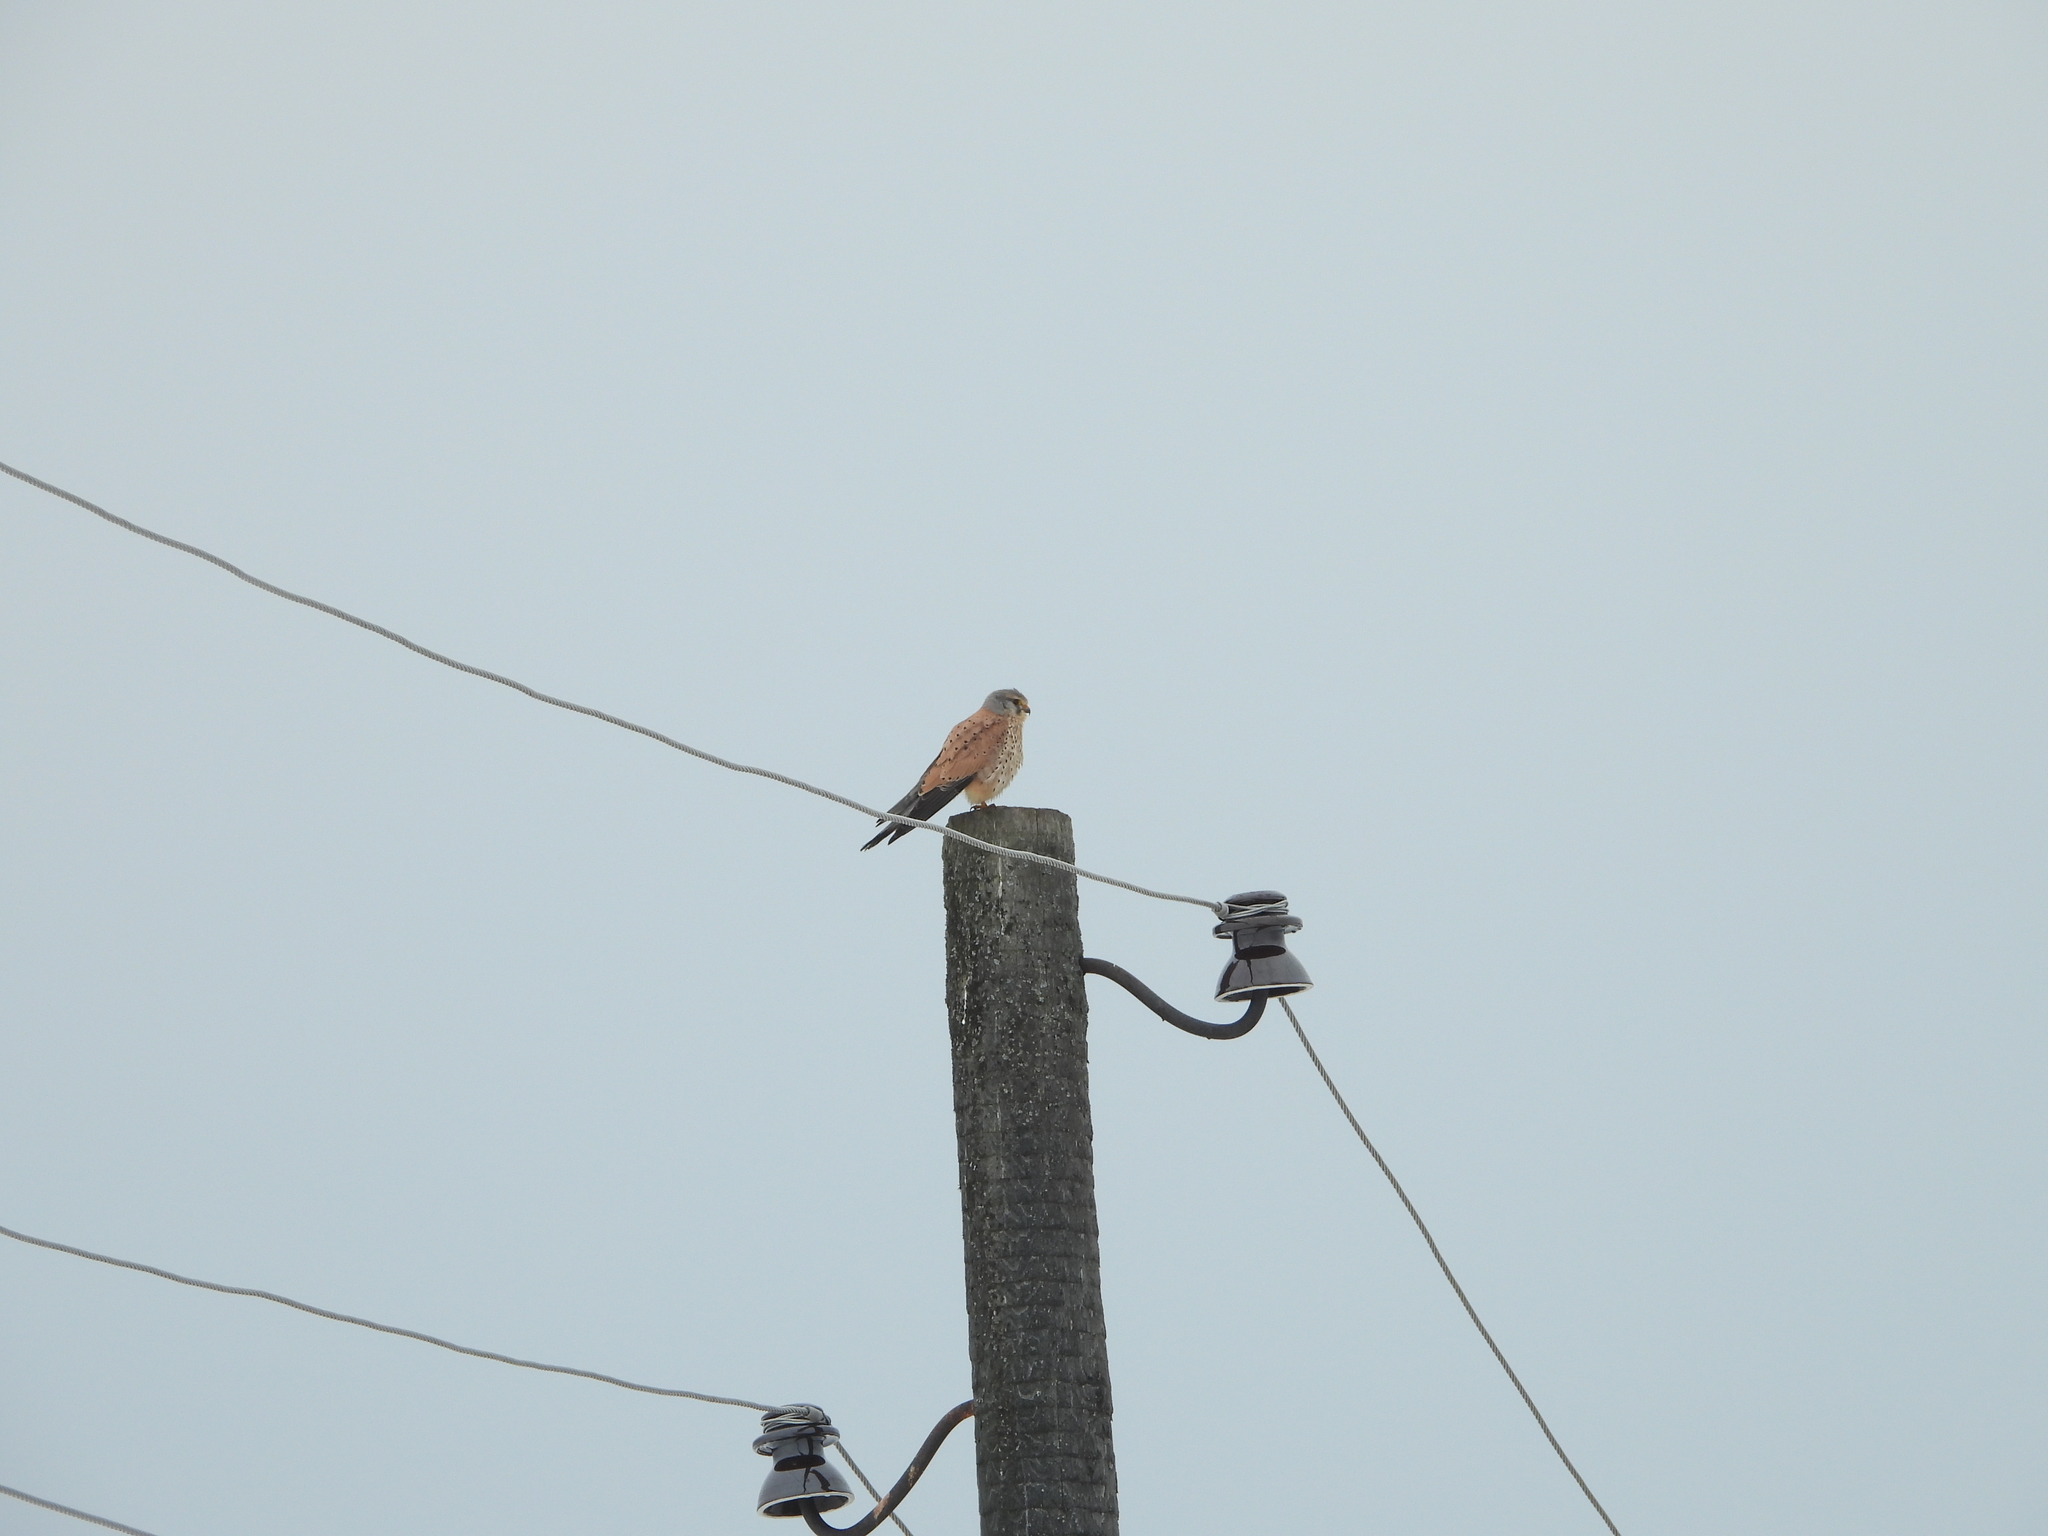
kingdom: Animalia
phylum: Chordata
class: Aves
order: Falconiformes
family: Falconidae
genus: Falco
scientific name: Falco tinnunculus
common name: Common kestrel
